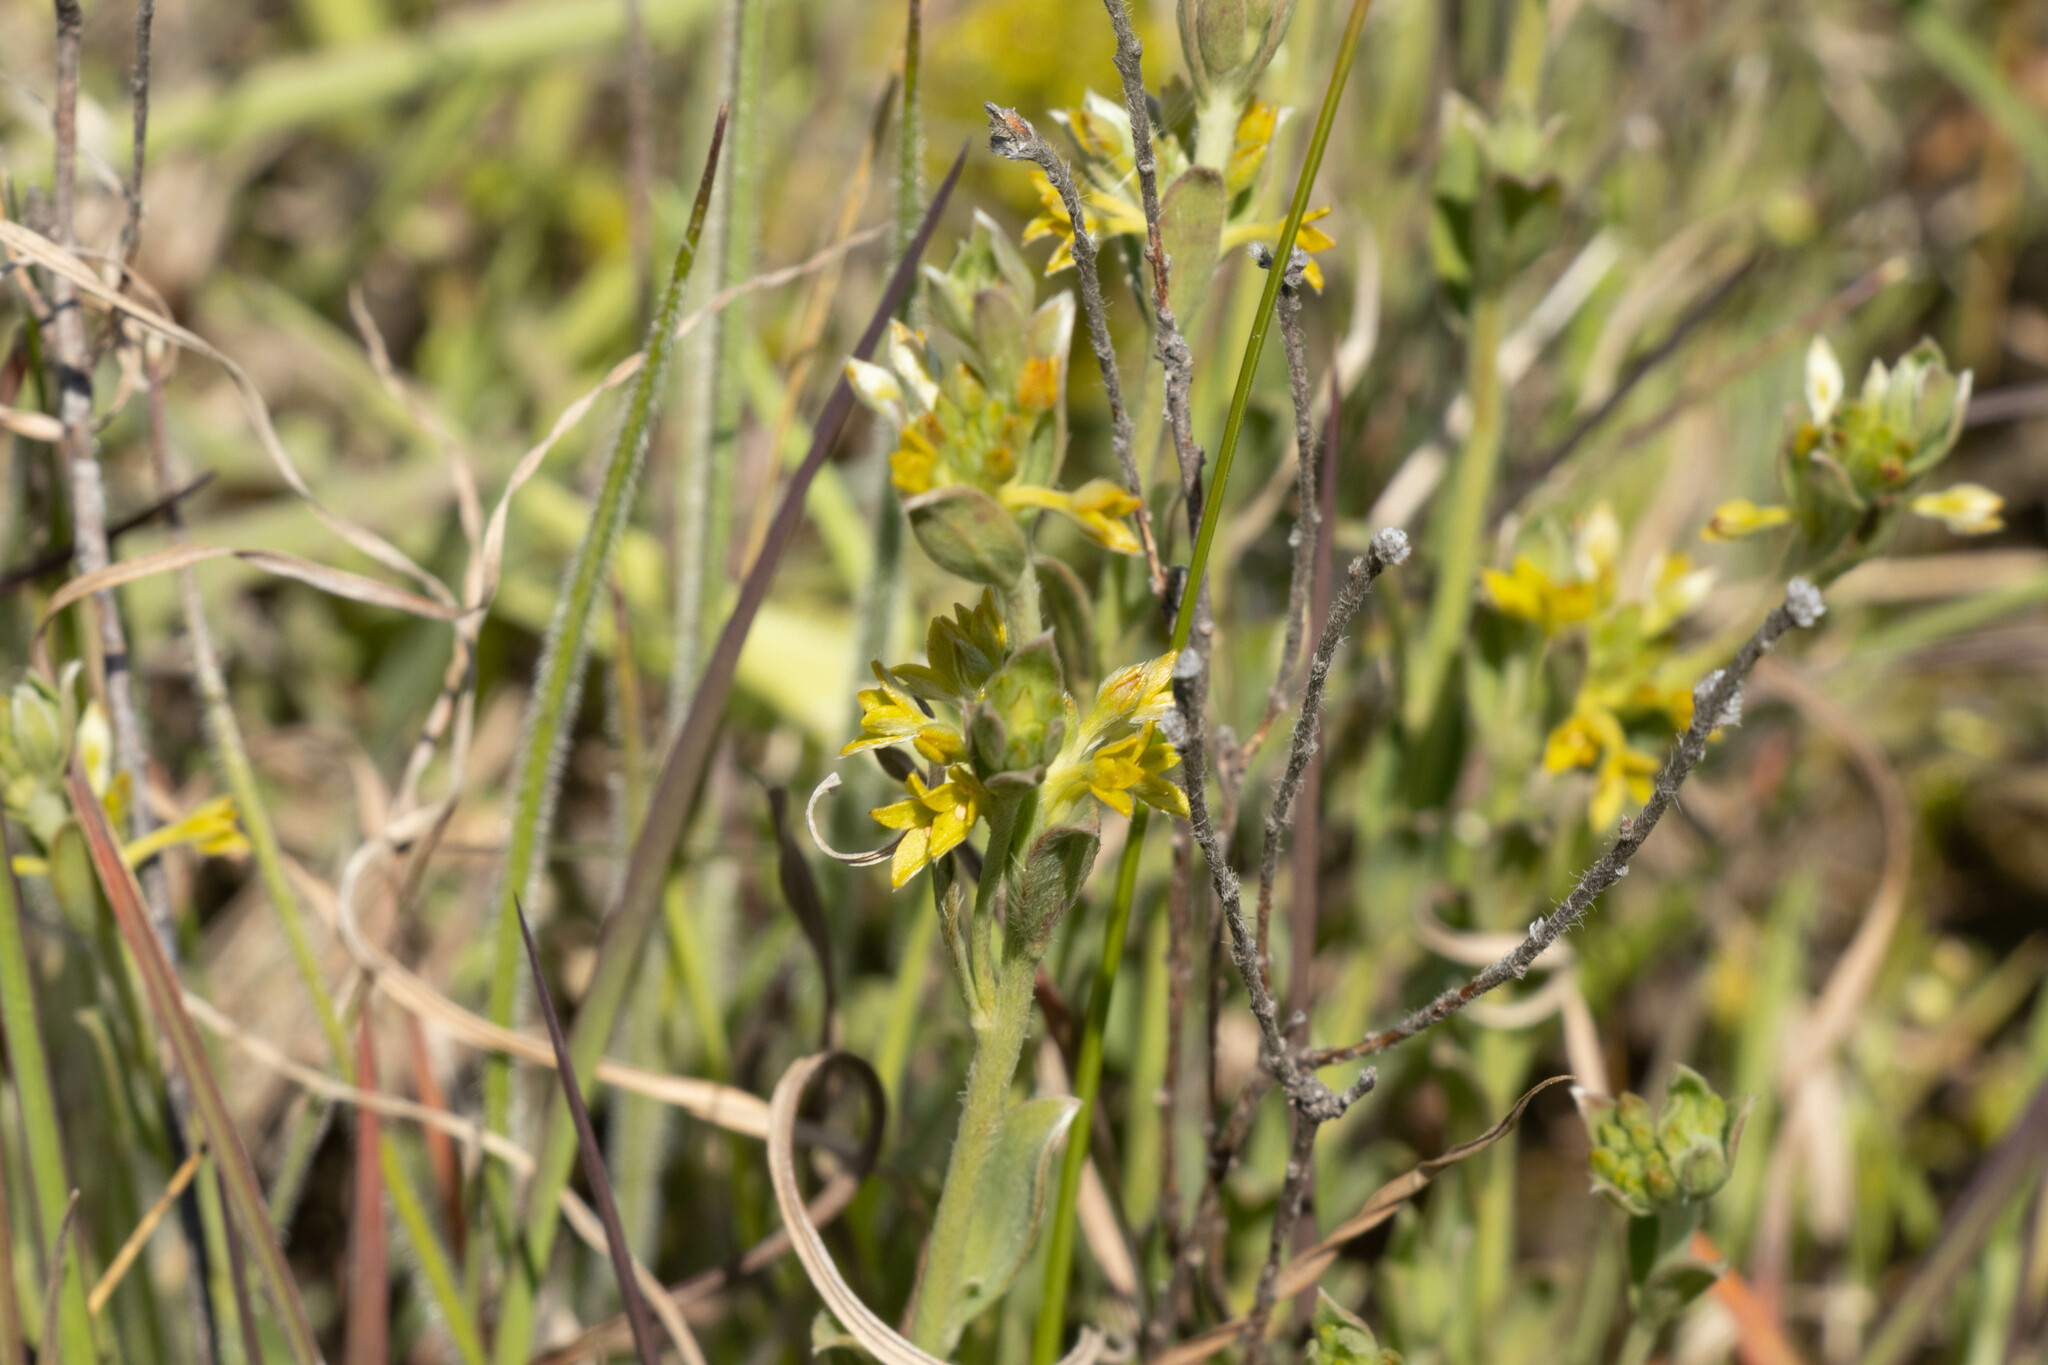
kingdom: Plantae
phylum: Tracheophyta
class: Magnoliopsida
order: Malvales
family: Thymelaeaceae
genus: Pimelea
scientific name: Pimelea curviflora
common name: Curved riceflower
